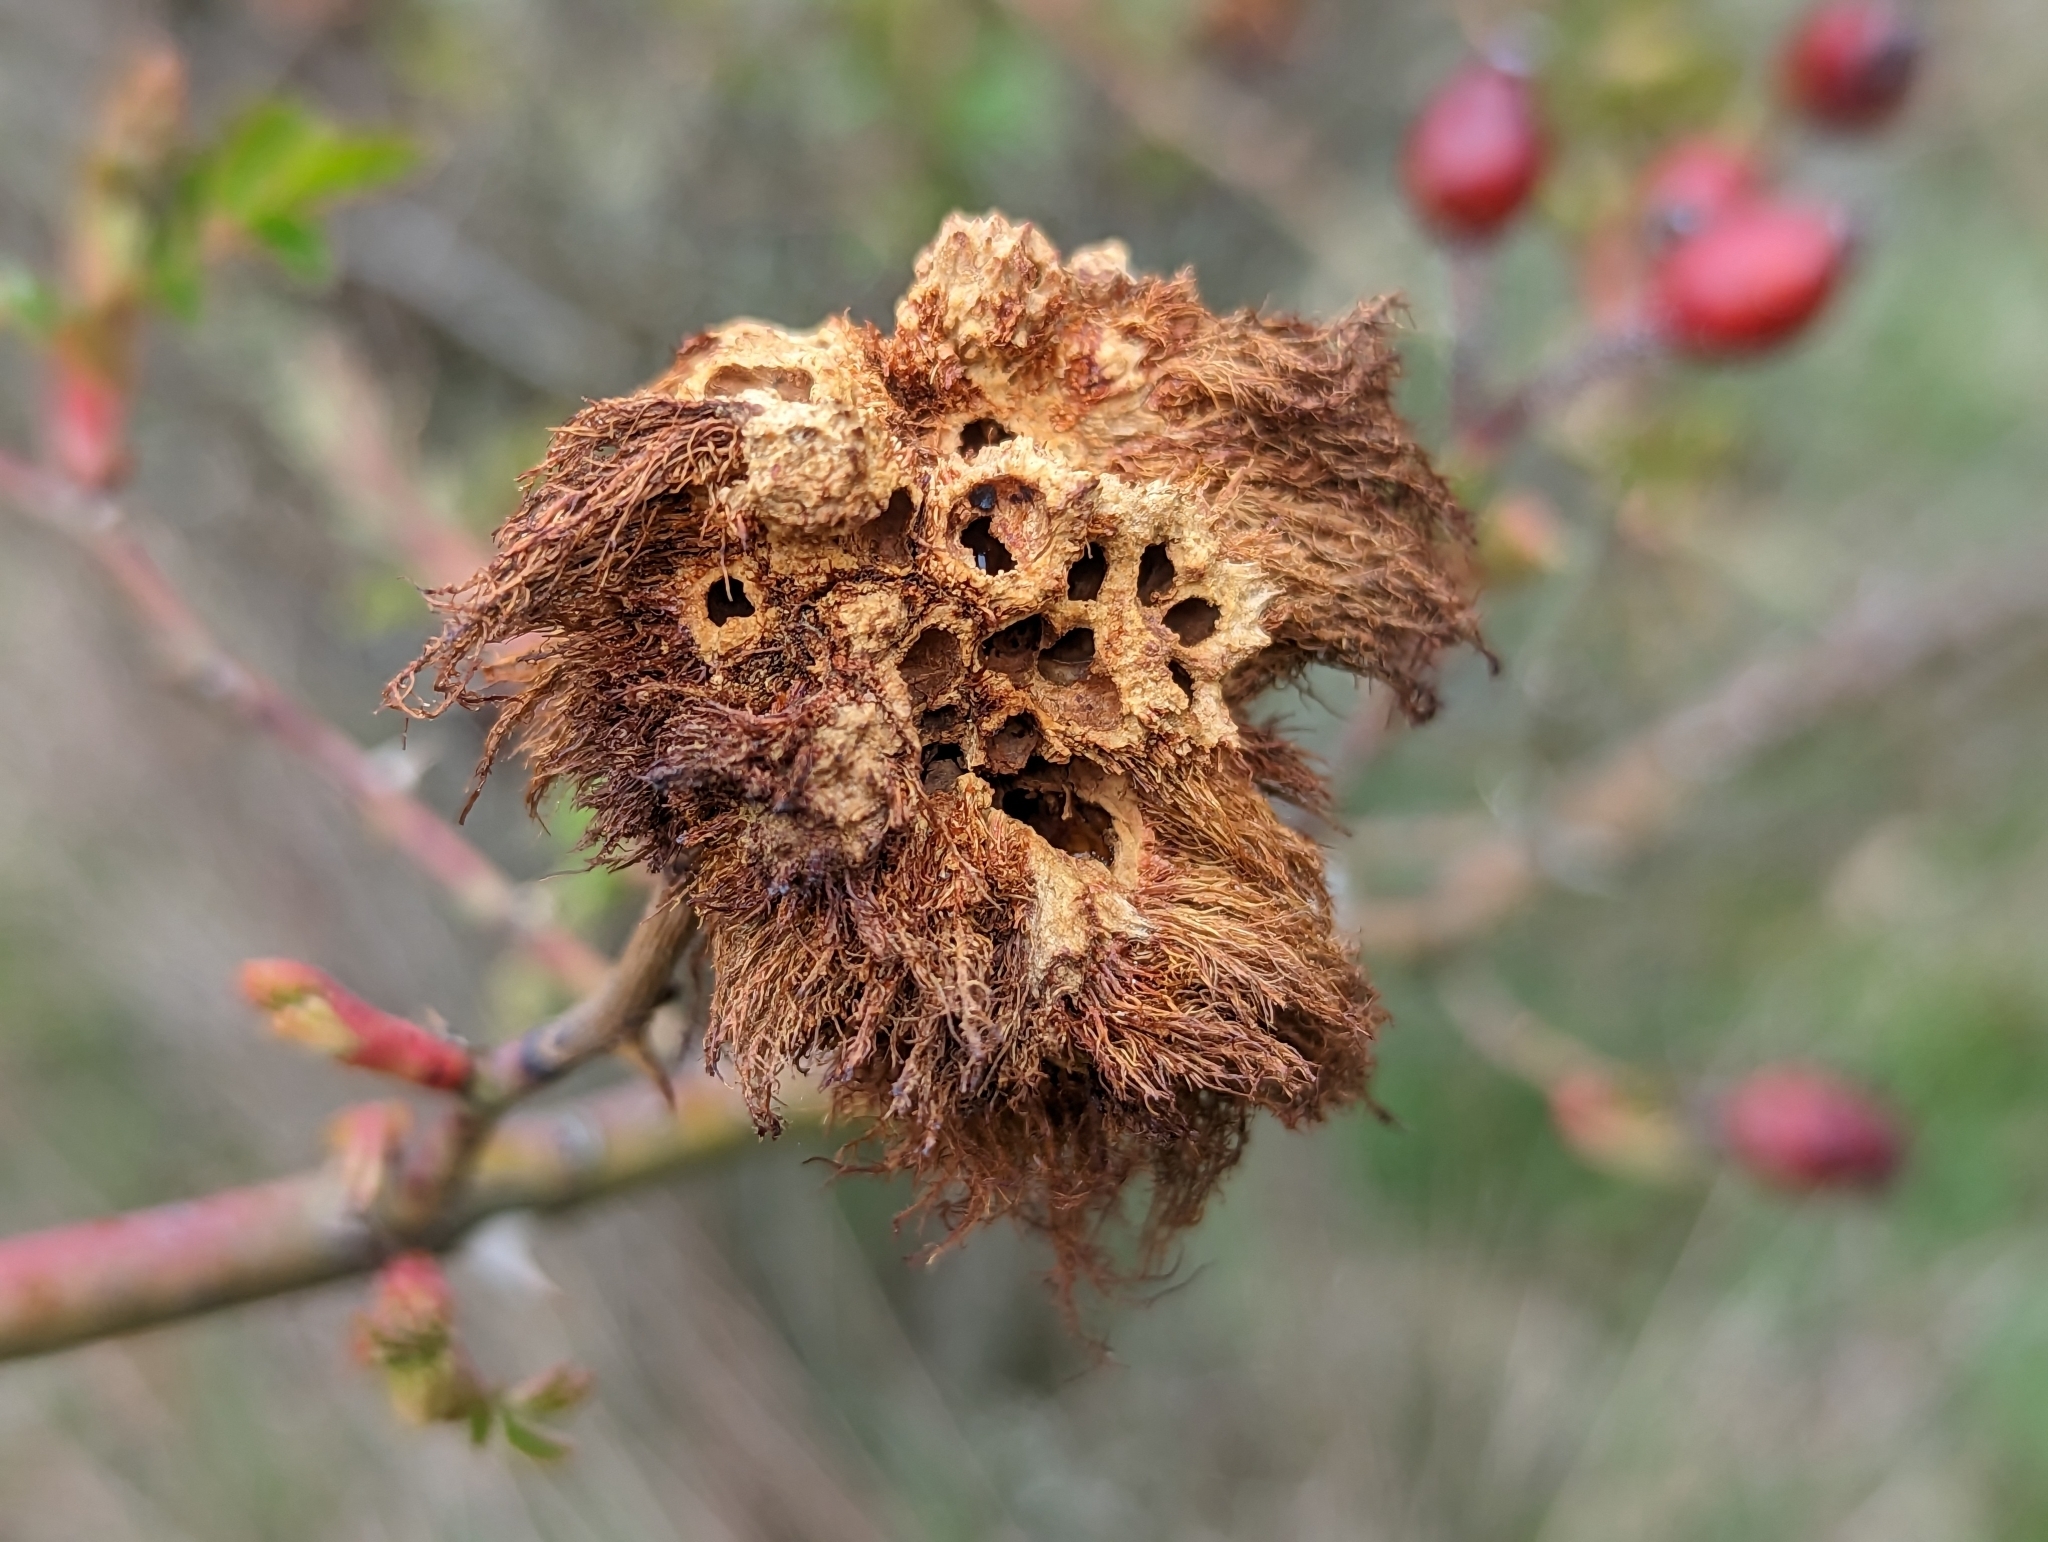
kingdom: Animalia
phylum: Arthropoda
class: Insecta
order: Hymenoptera
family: Cynipidae
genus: Diplolepis
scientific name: Diplolepis rosae
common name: Bedeguar gall
